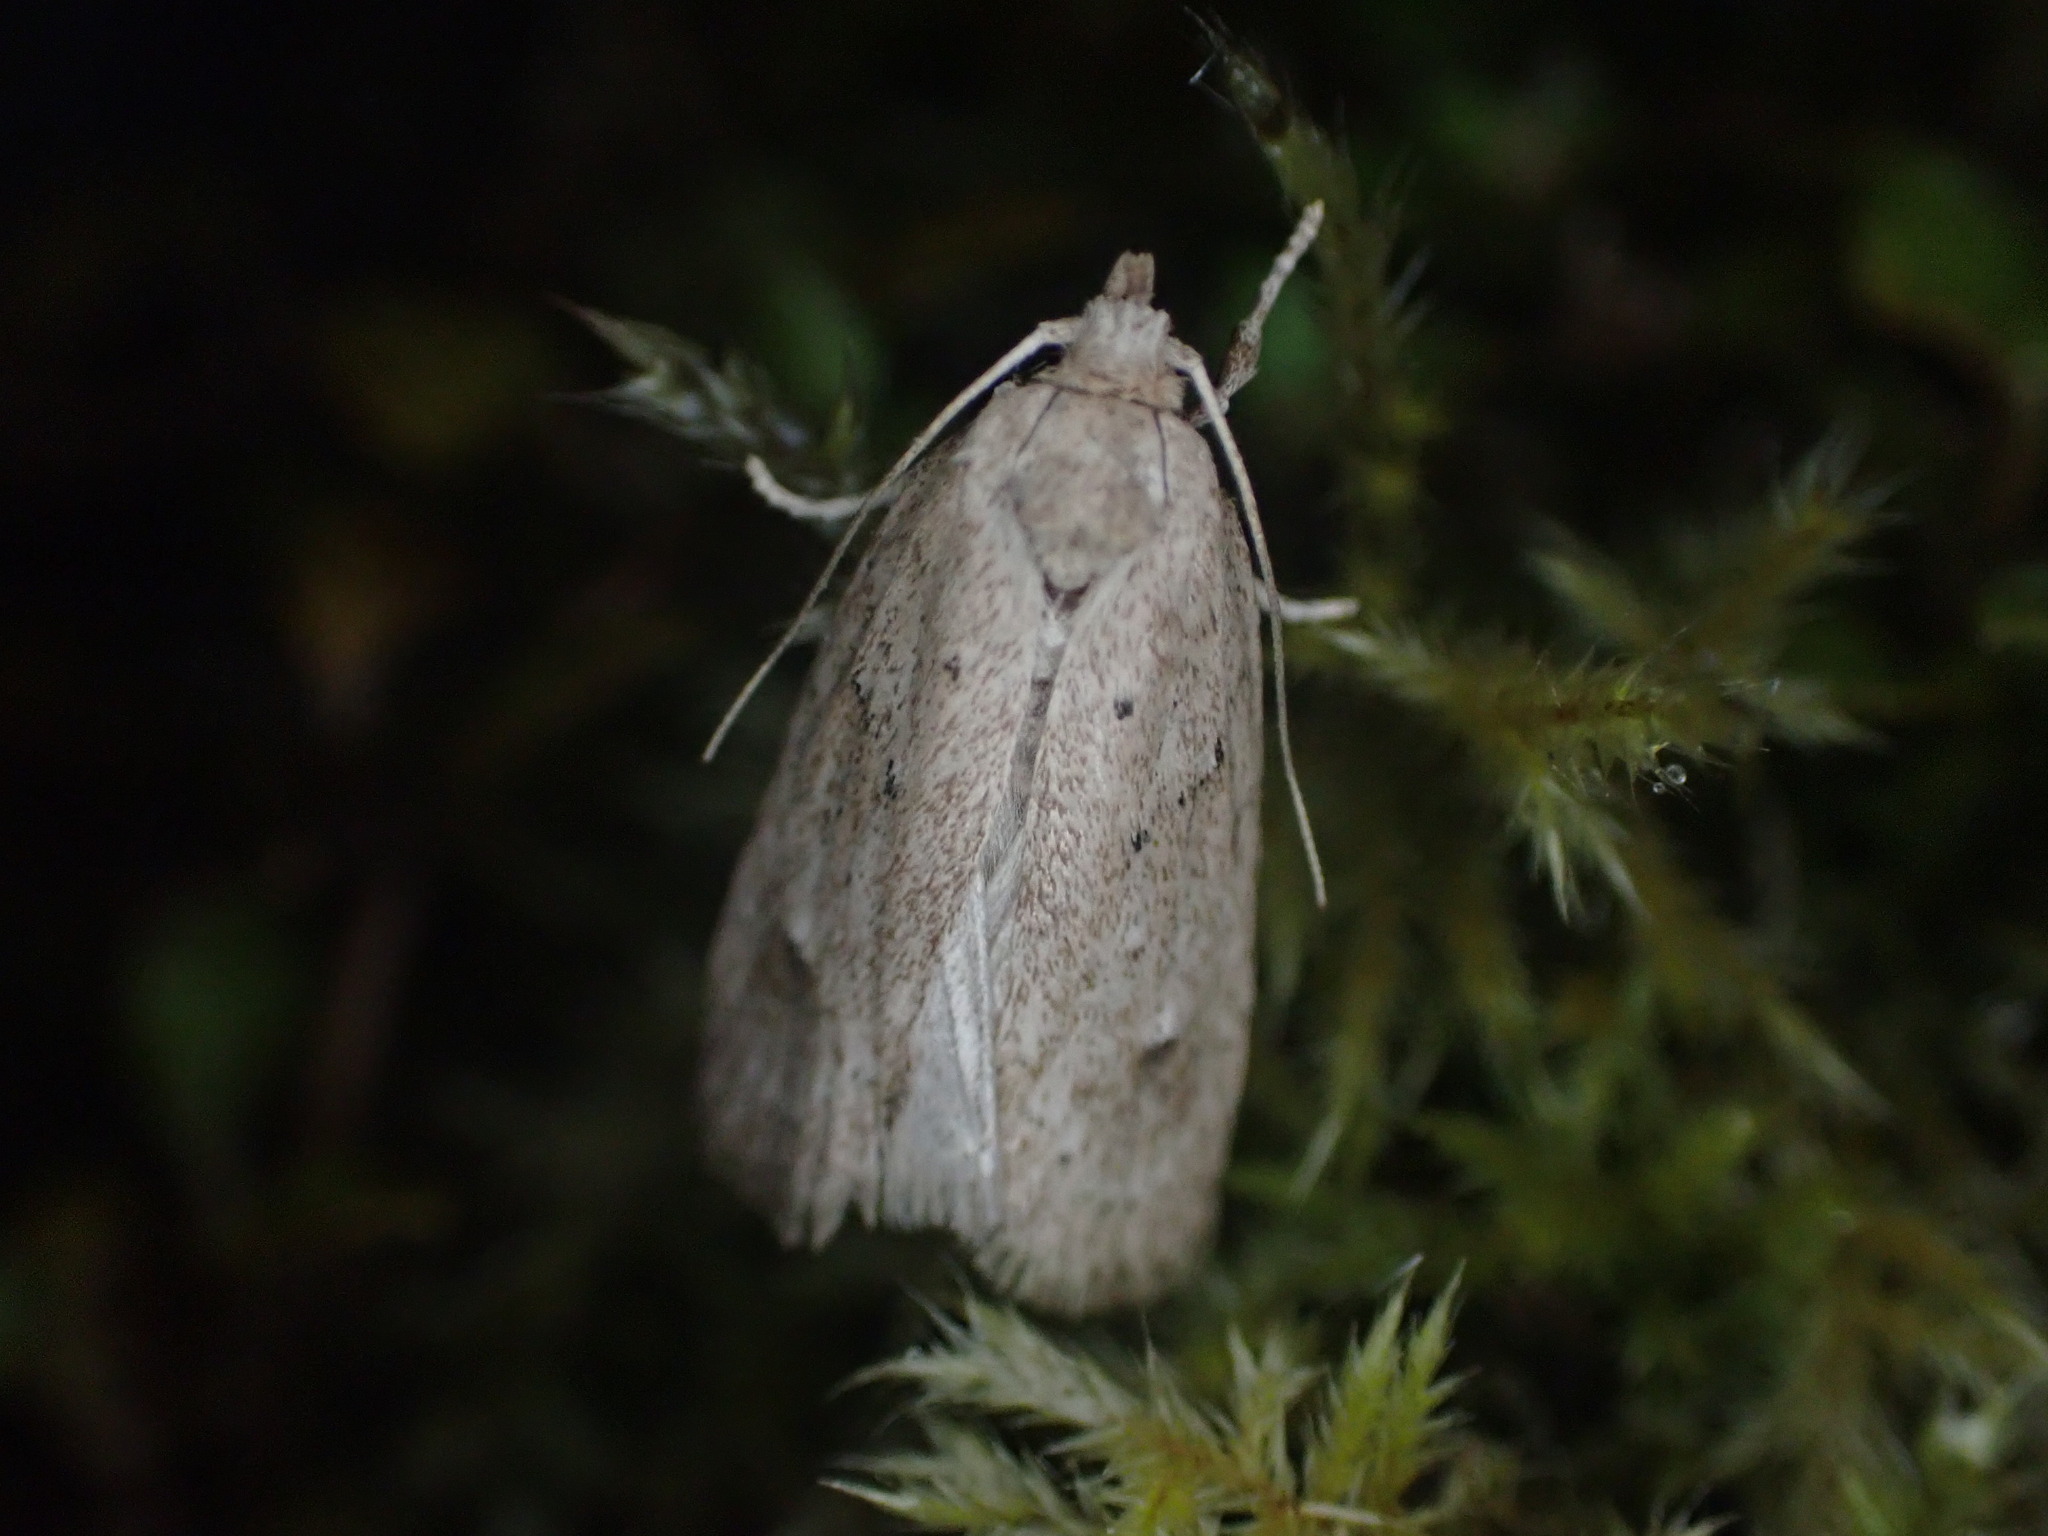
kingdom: Animalia
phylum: Arthropoda
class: Insecta
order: Lepidoptera
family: Depressariidae
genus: Agriophara
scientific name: Agriophara
